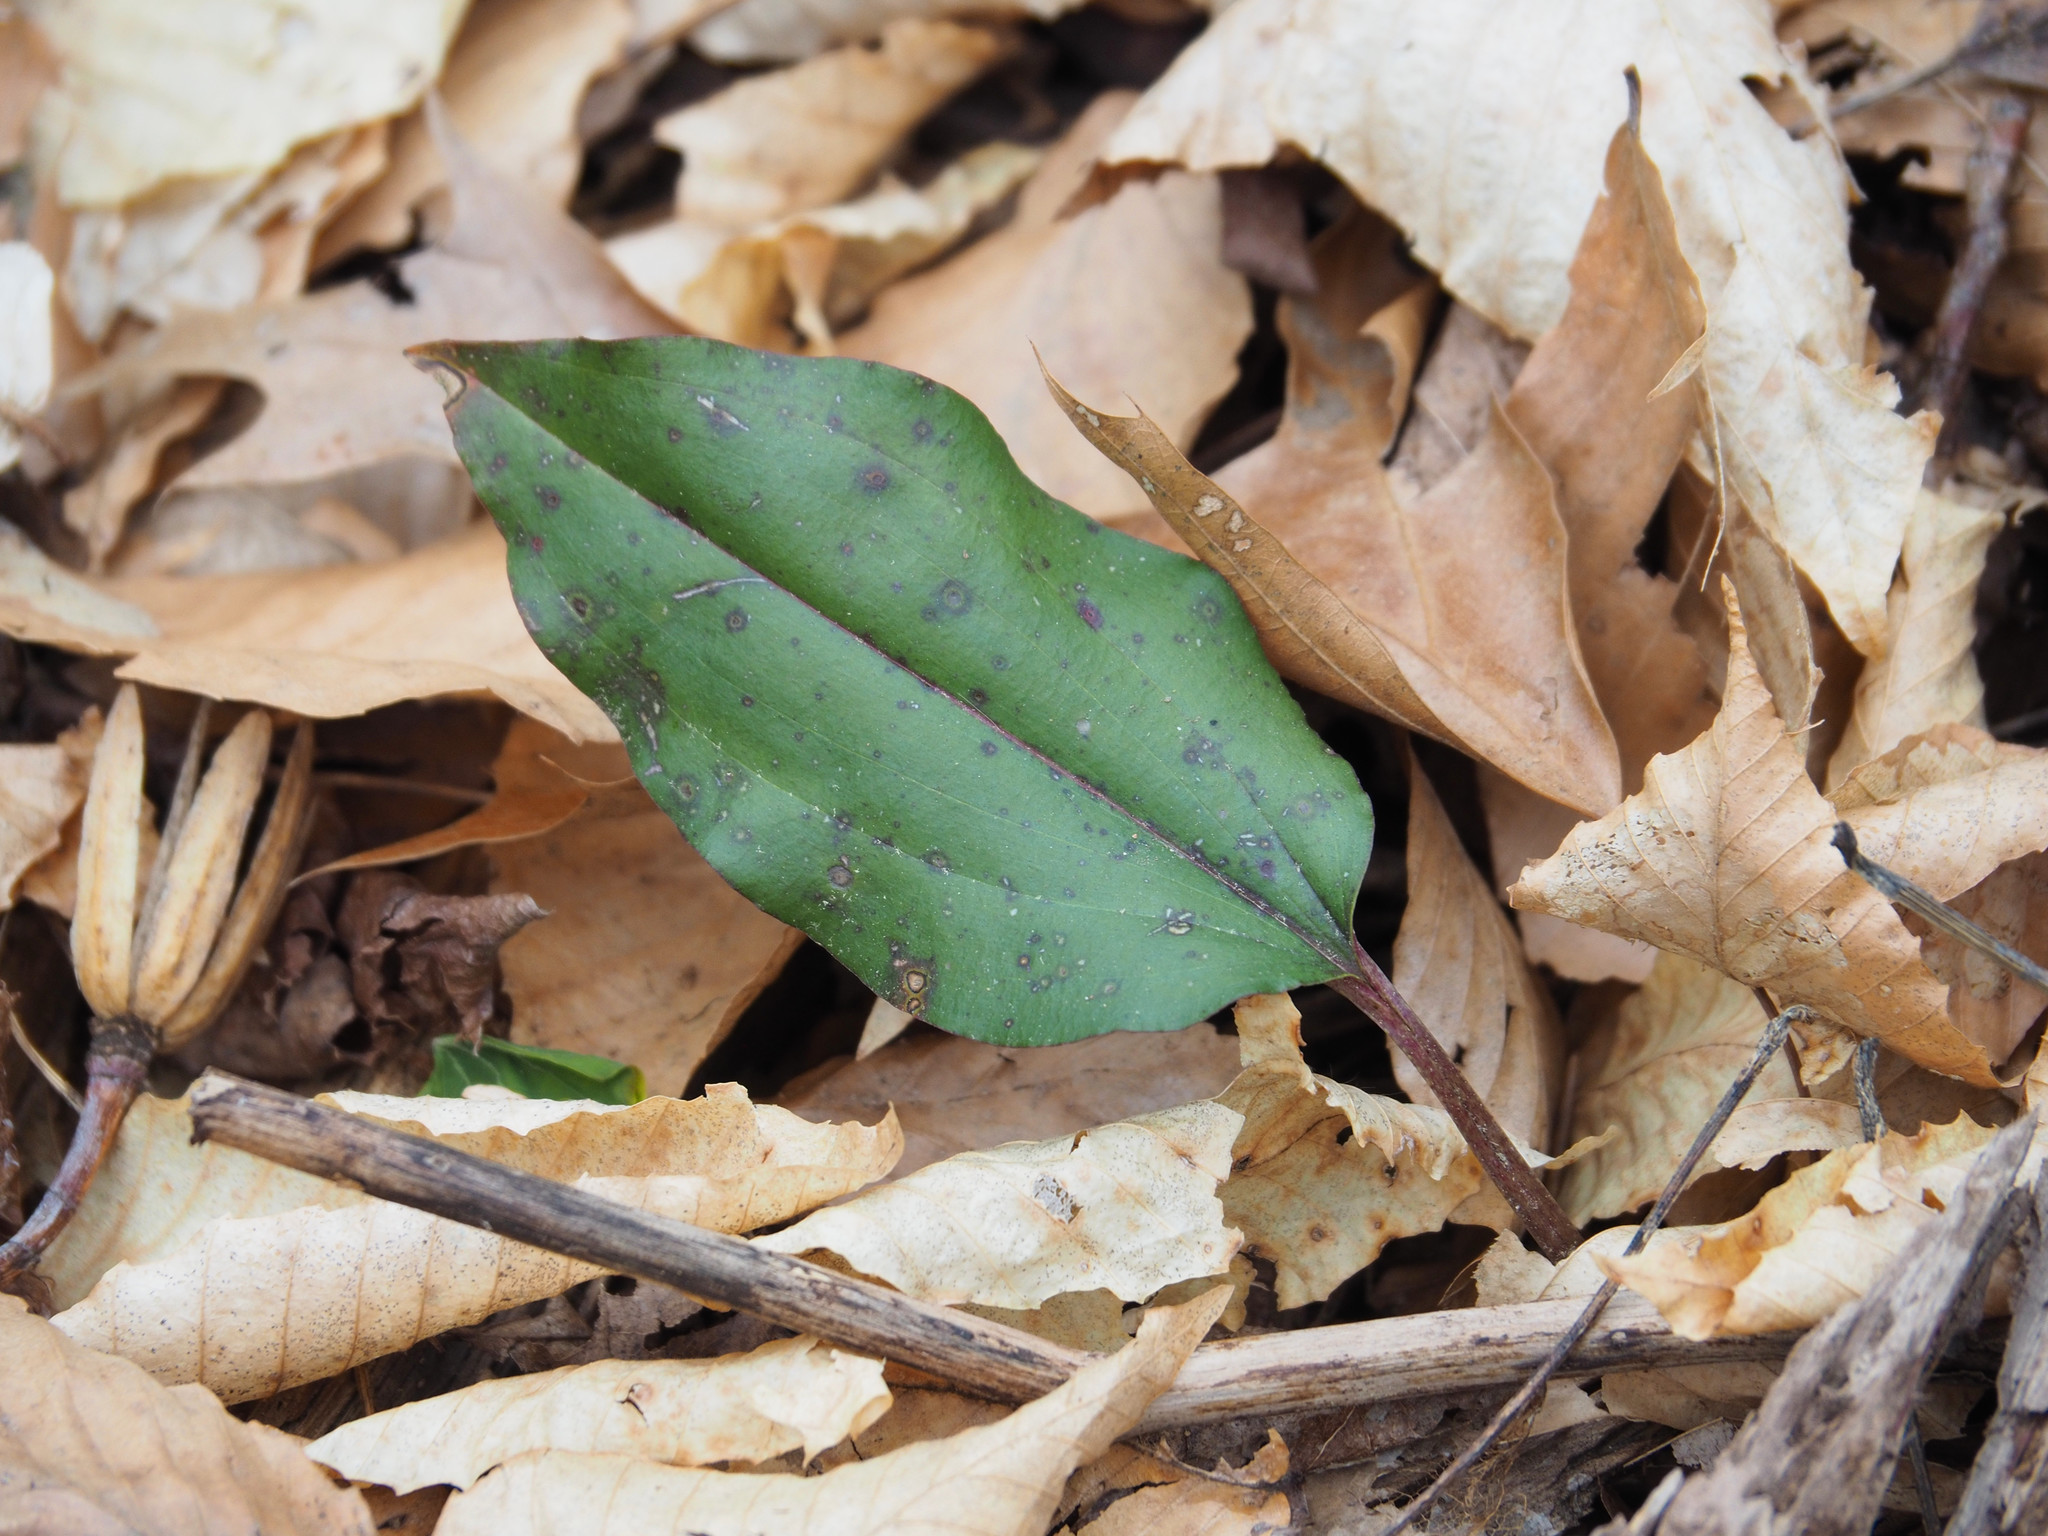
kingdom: Plantae
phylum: Tracheophyta
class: Liliopsida
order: Asparagales
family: Orchidaceae
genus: Tipularia
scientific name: Tipularia discolor
